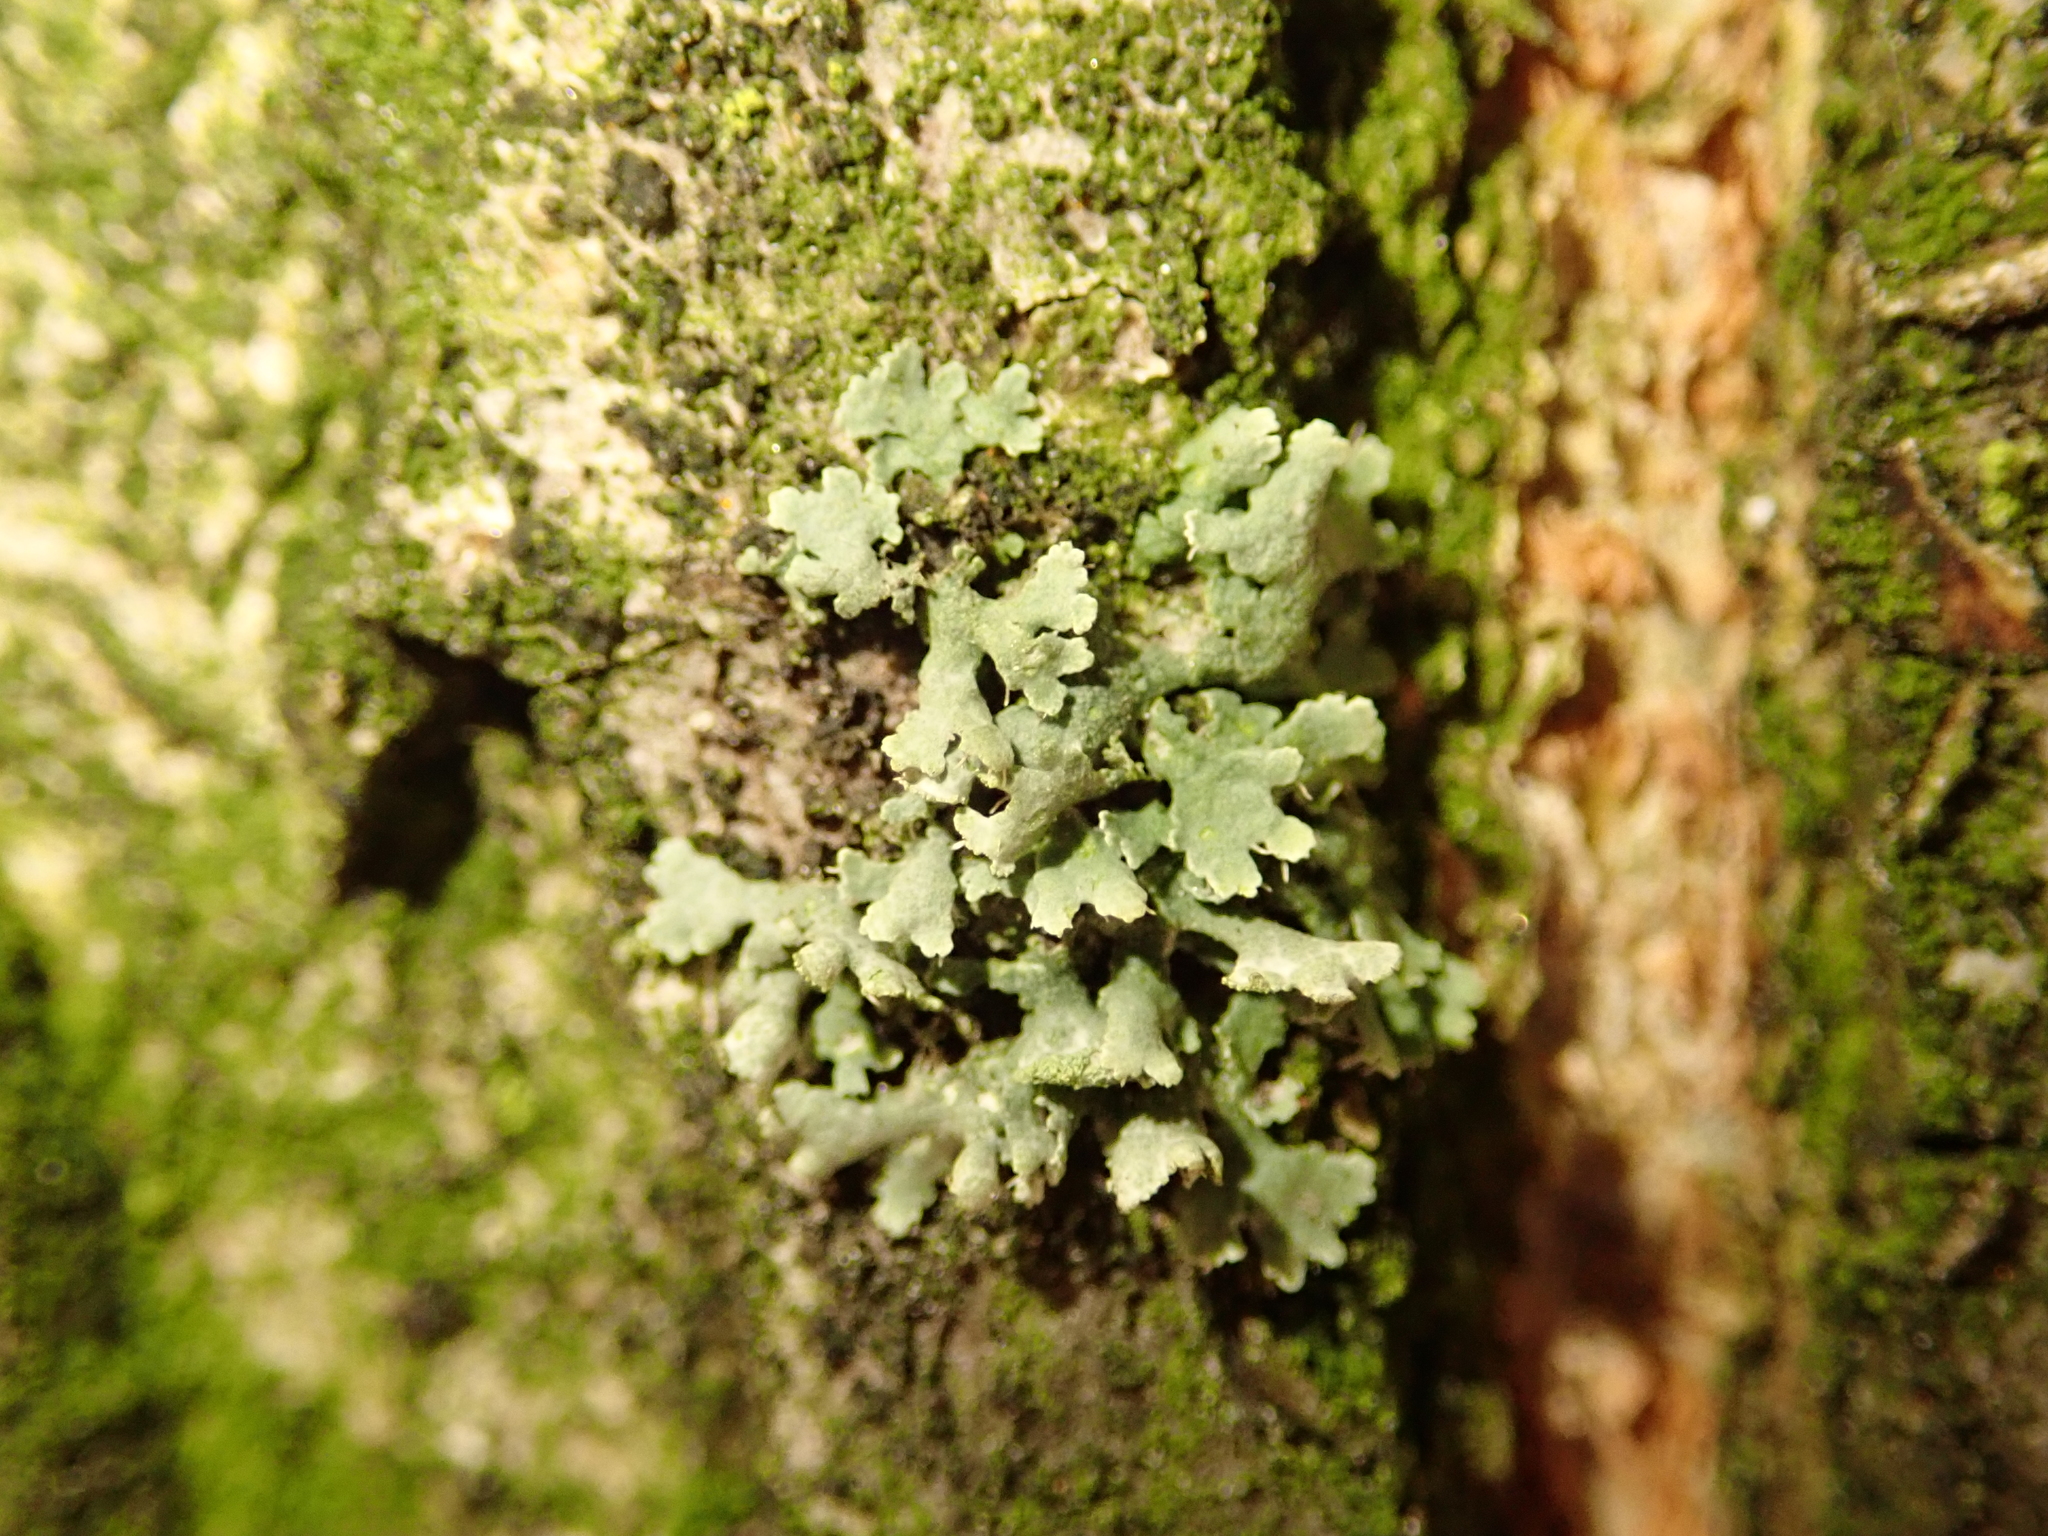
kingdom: Fungi
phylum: Ascomycota
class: Lecanoromycetes
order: Caliciales
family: Physciaceae
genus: Physcia
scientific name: Physcia adscendens
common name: Hooded rosette lichen
